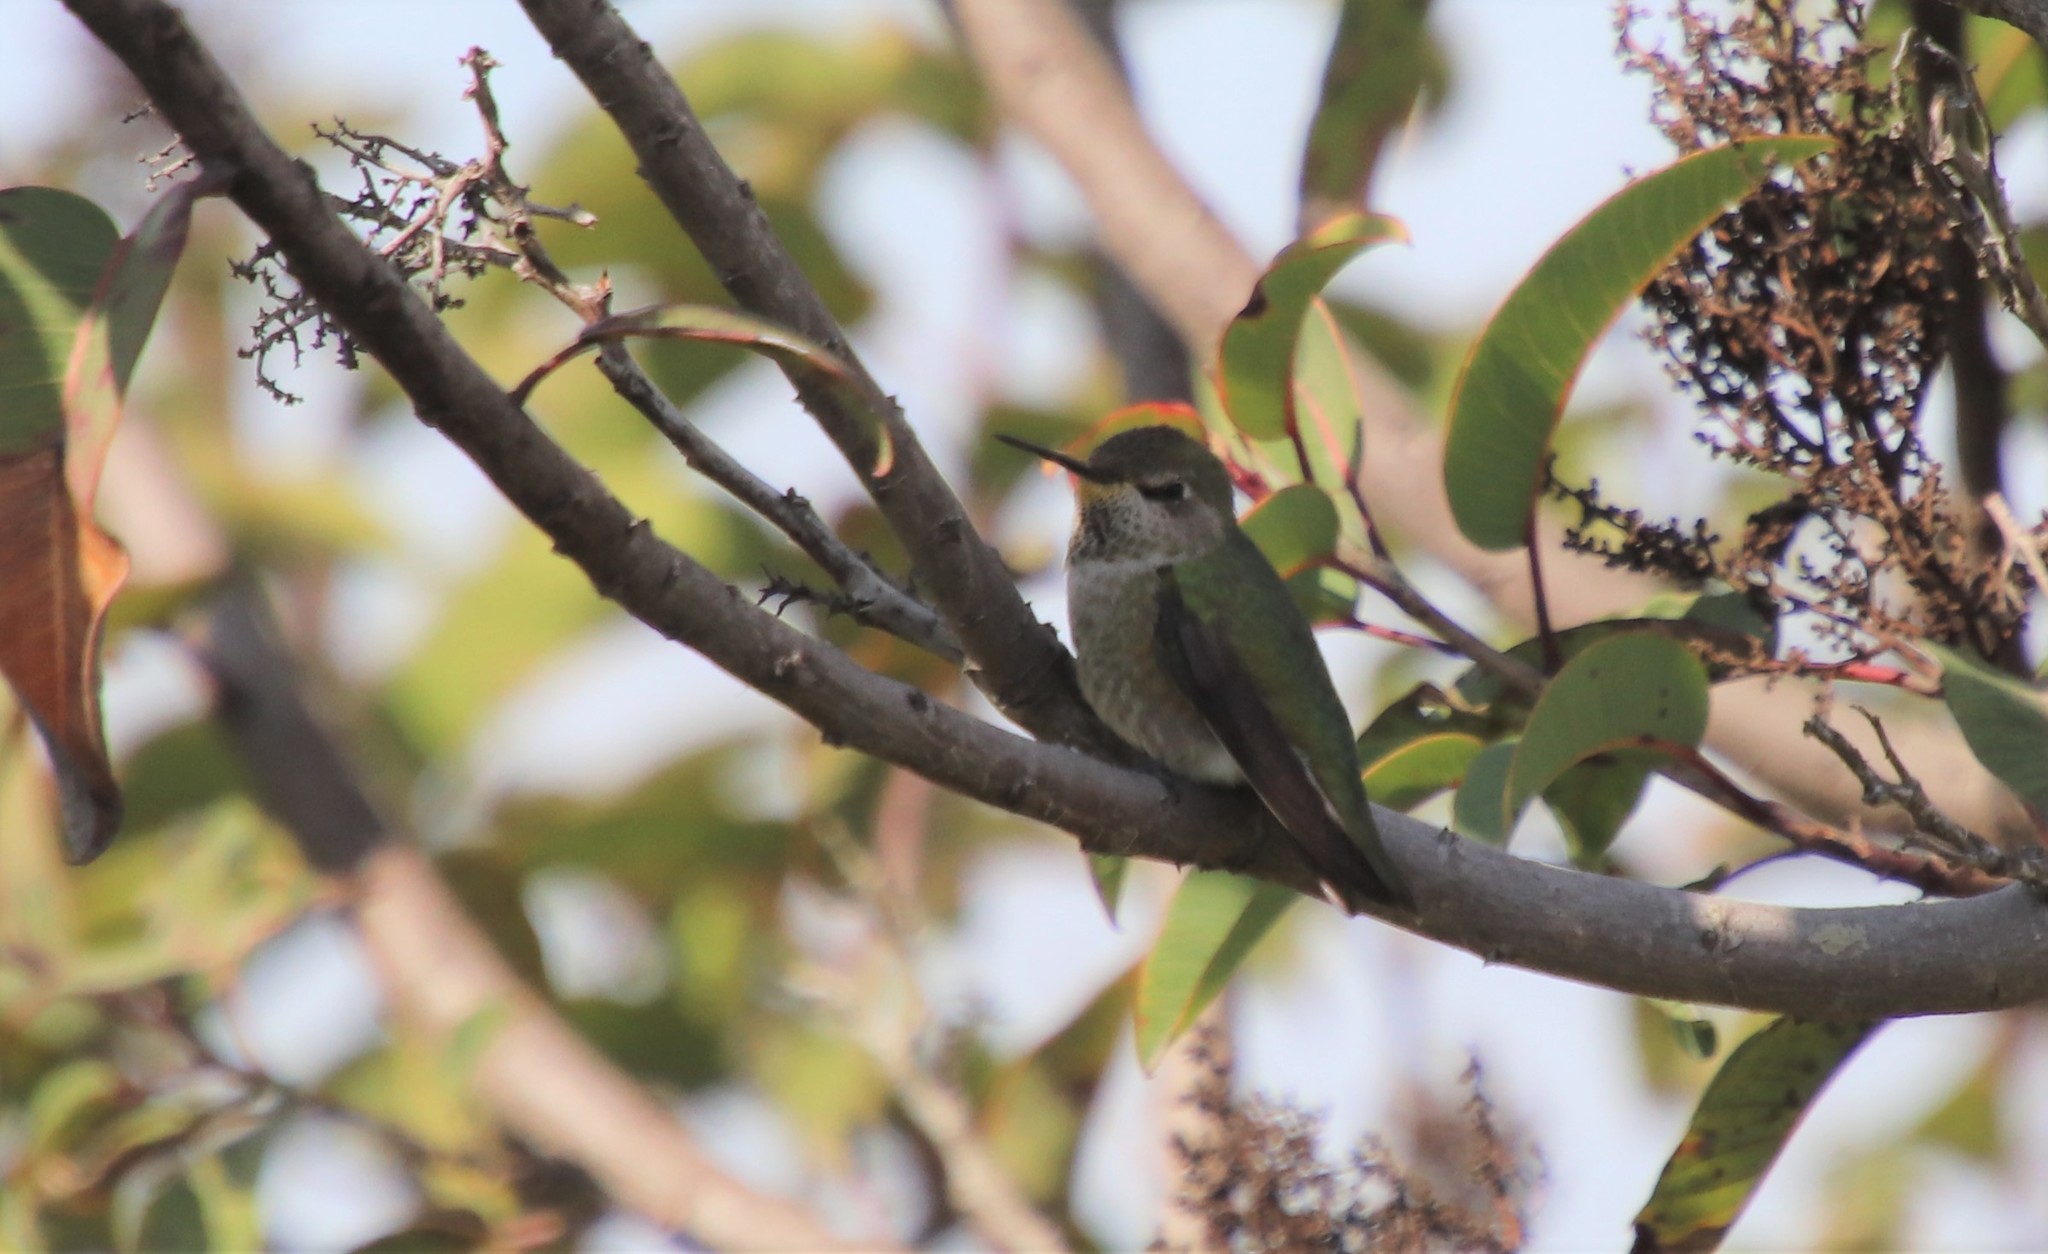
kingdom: Animalia
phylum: Chordata
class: Aves
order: Apodiformes
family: Trochilidae
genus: Calypte
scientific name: Calypte anna
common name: Anna's hummingbird
